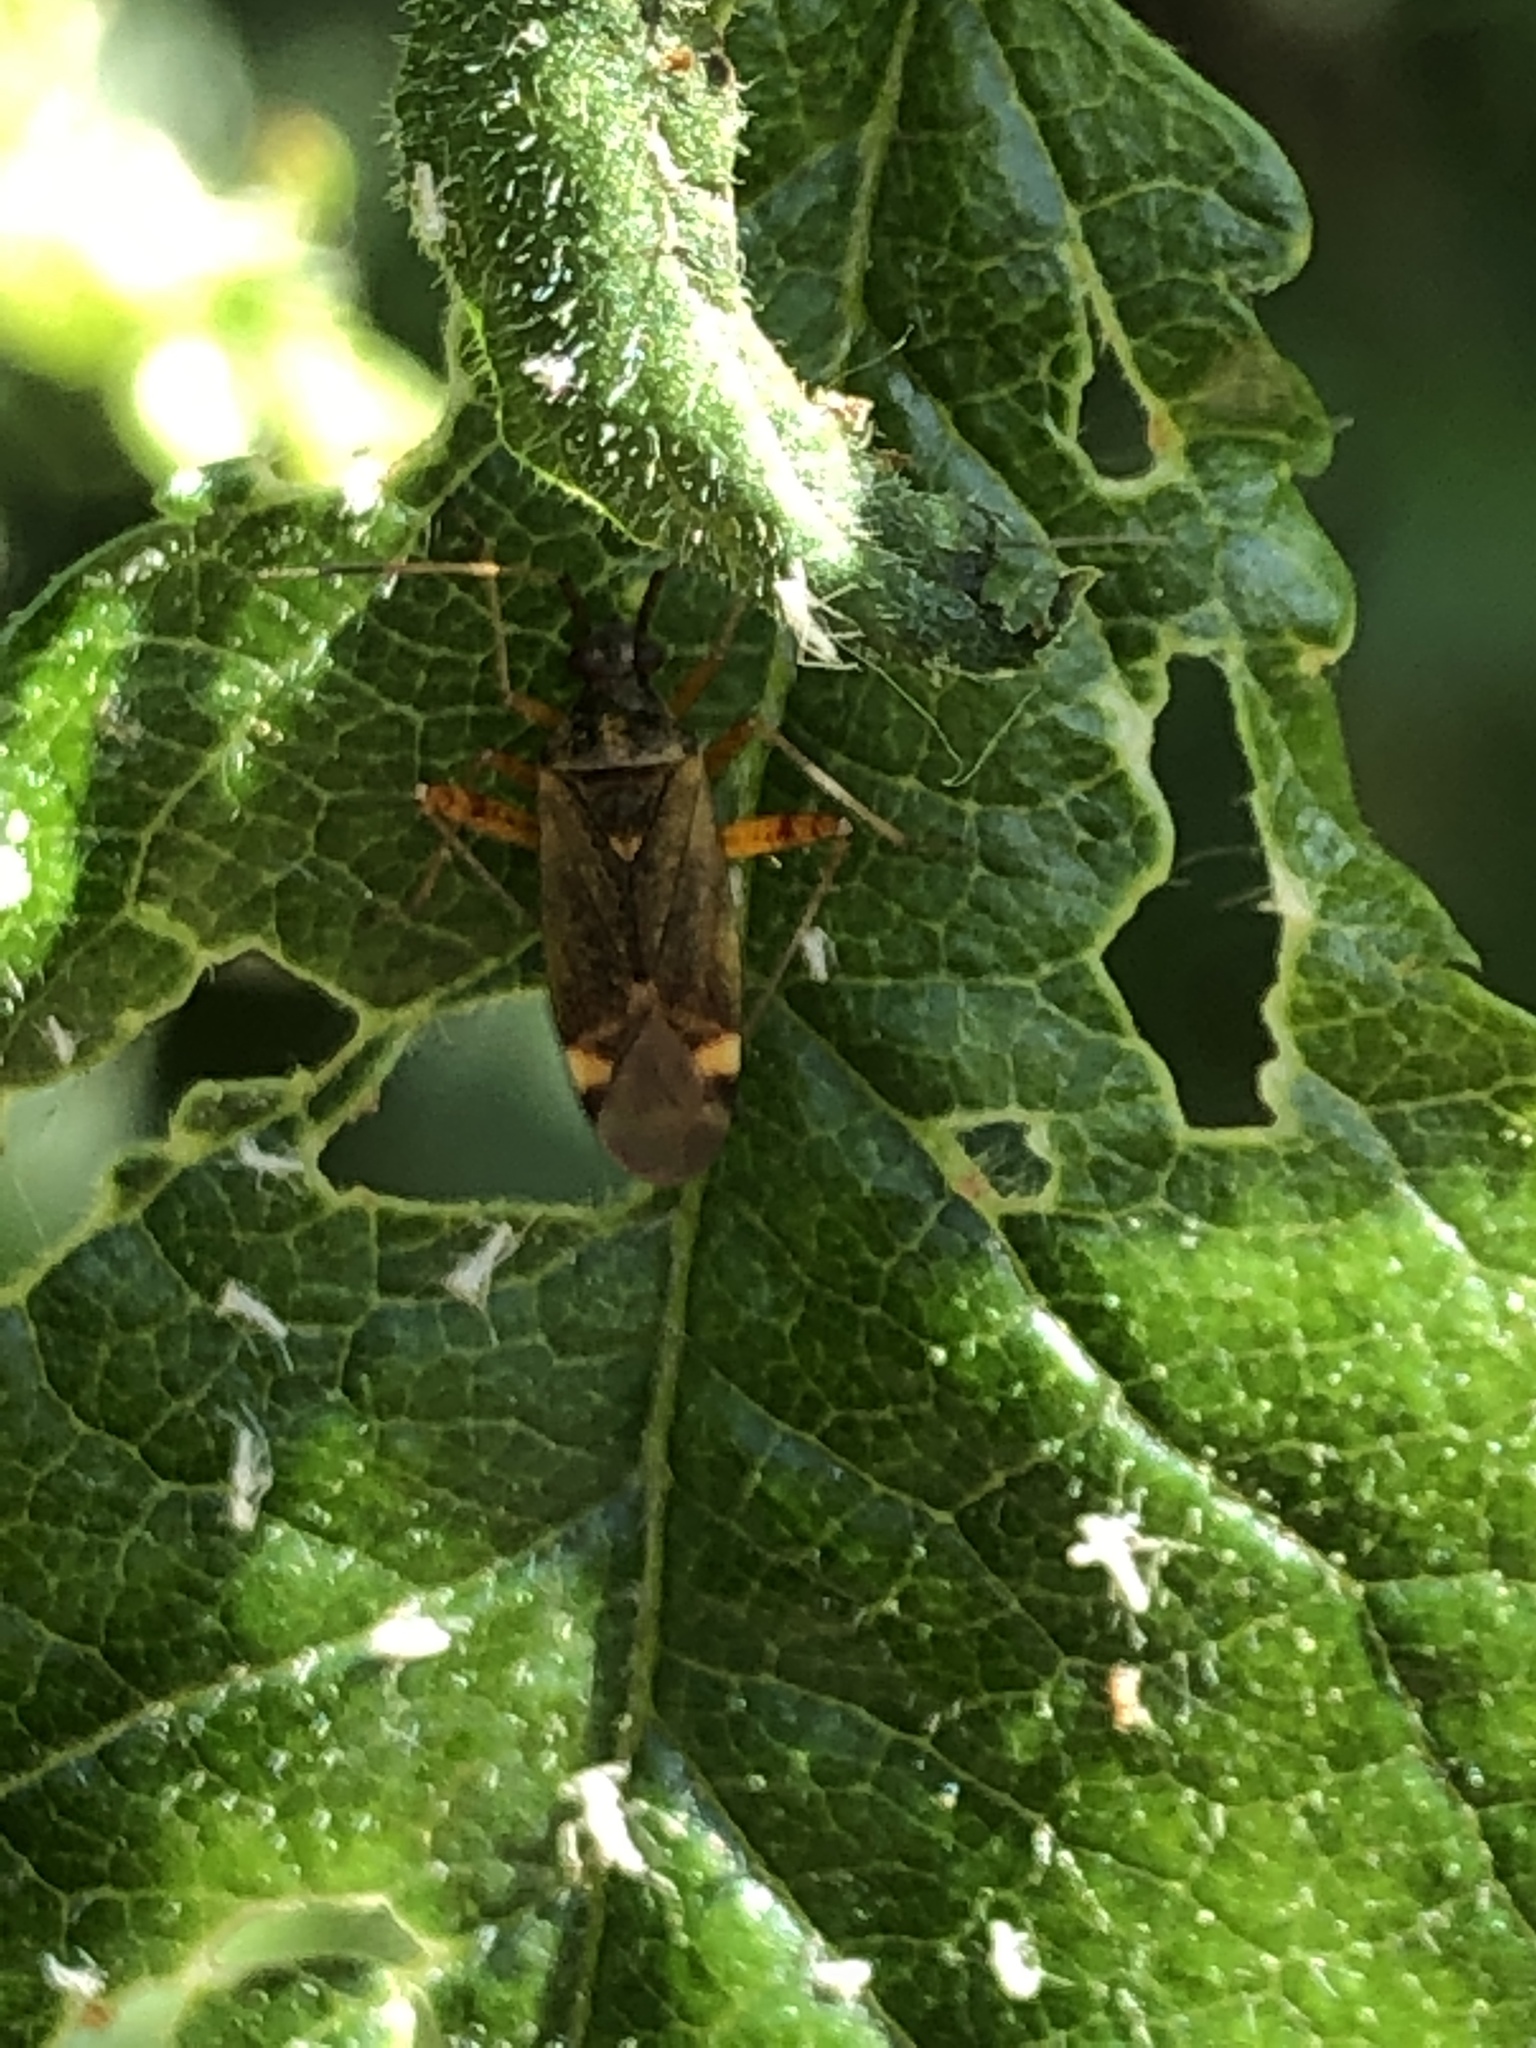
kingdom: Animalia
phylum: Arthropoda
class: Insecta
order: Hemiptera
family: Miridae
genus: Closterotomus
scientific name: Closterotomus fulvomaculatus
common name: Spotted plant bug
